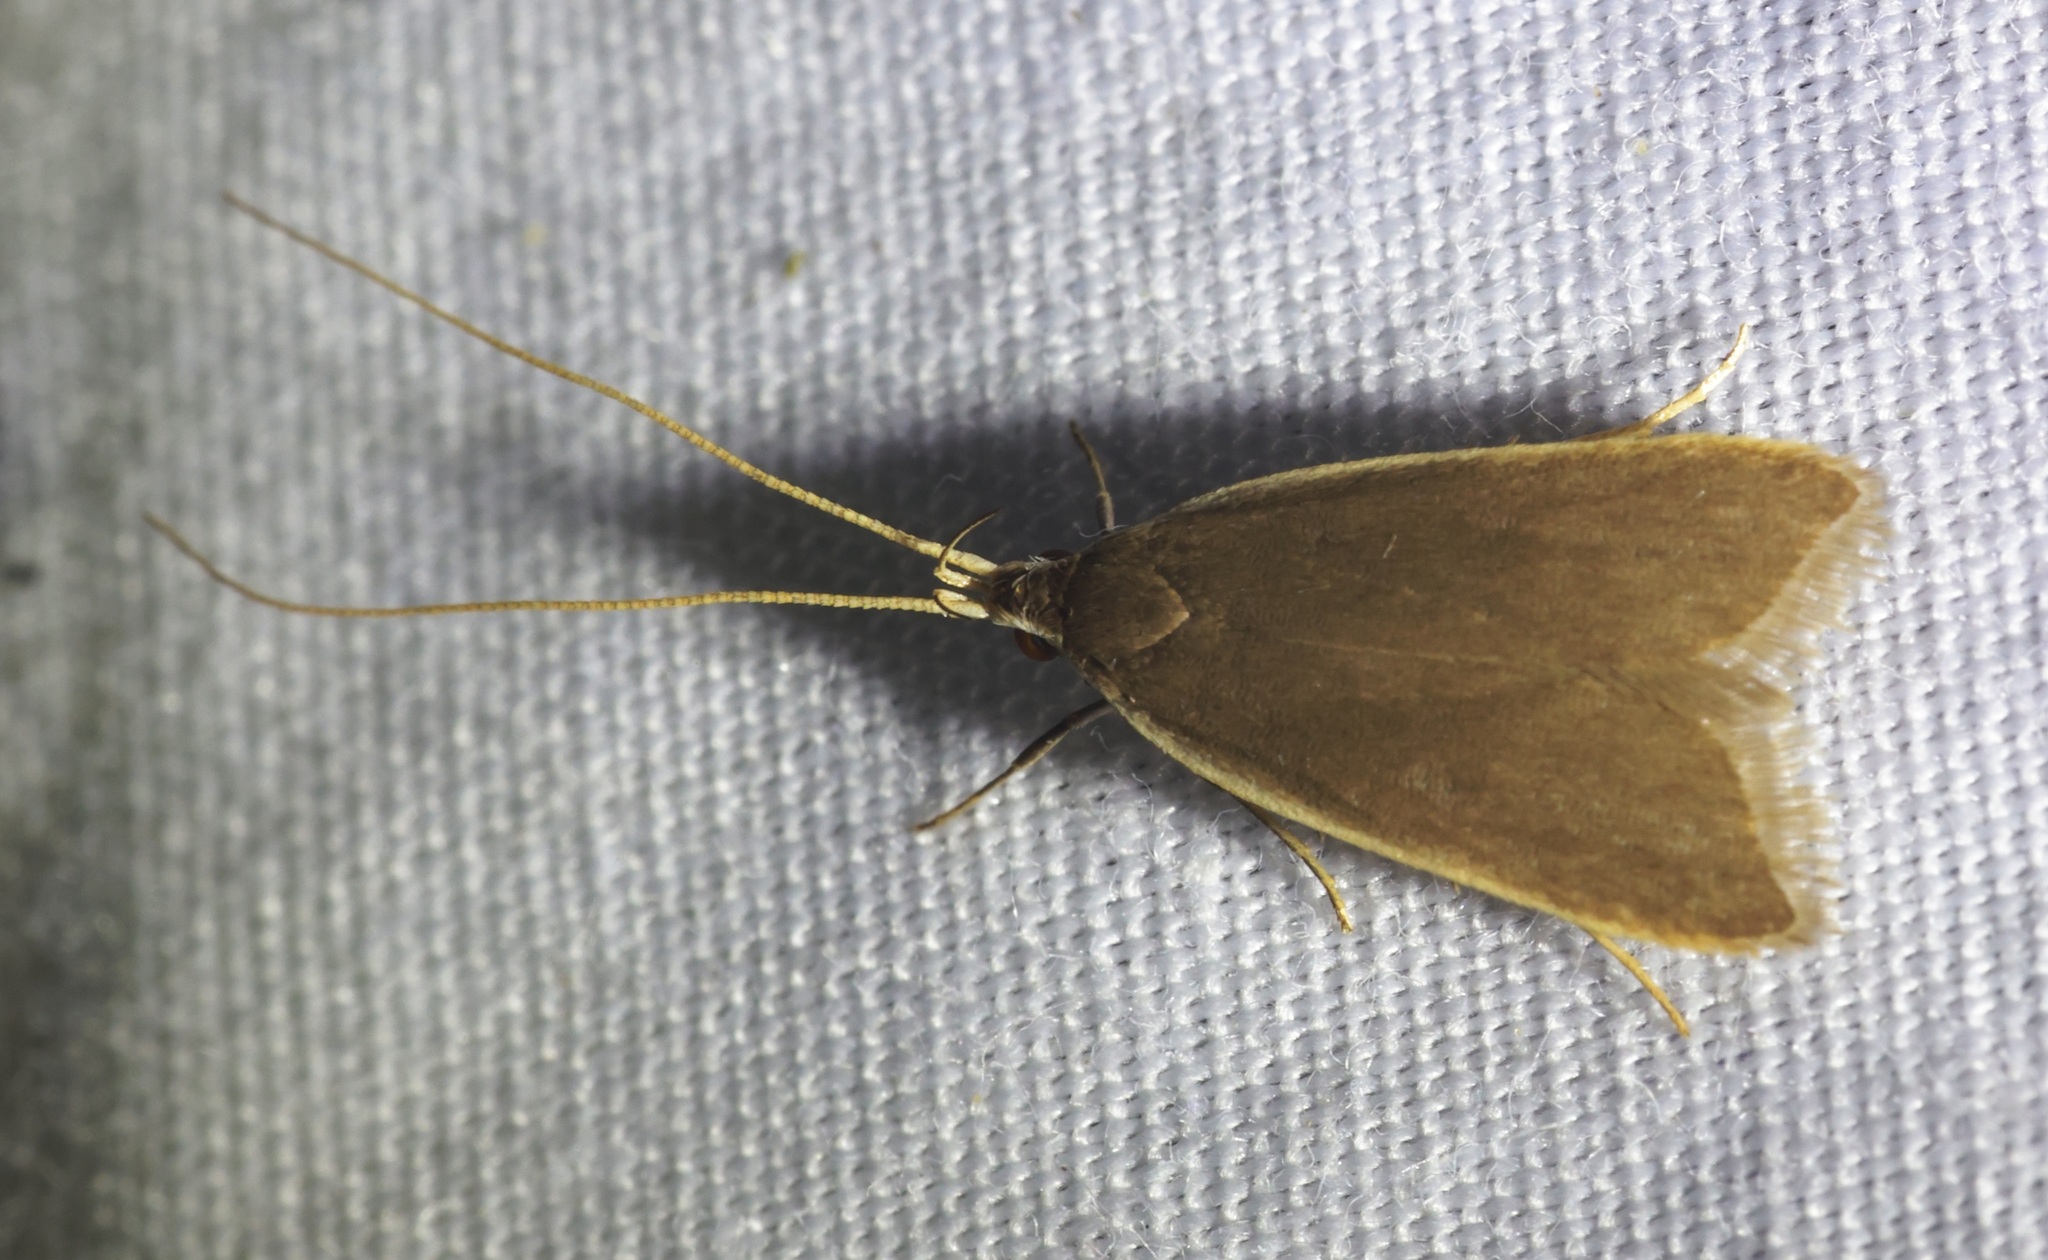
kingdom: Animalia
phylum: Arthropoda
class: Insecta
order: Lepidoptera
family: Lecithoceridae
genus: Homaloxestis
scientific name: Homaloxestis multidentalis
